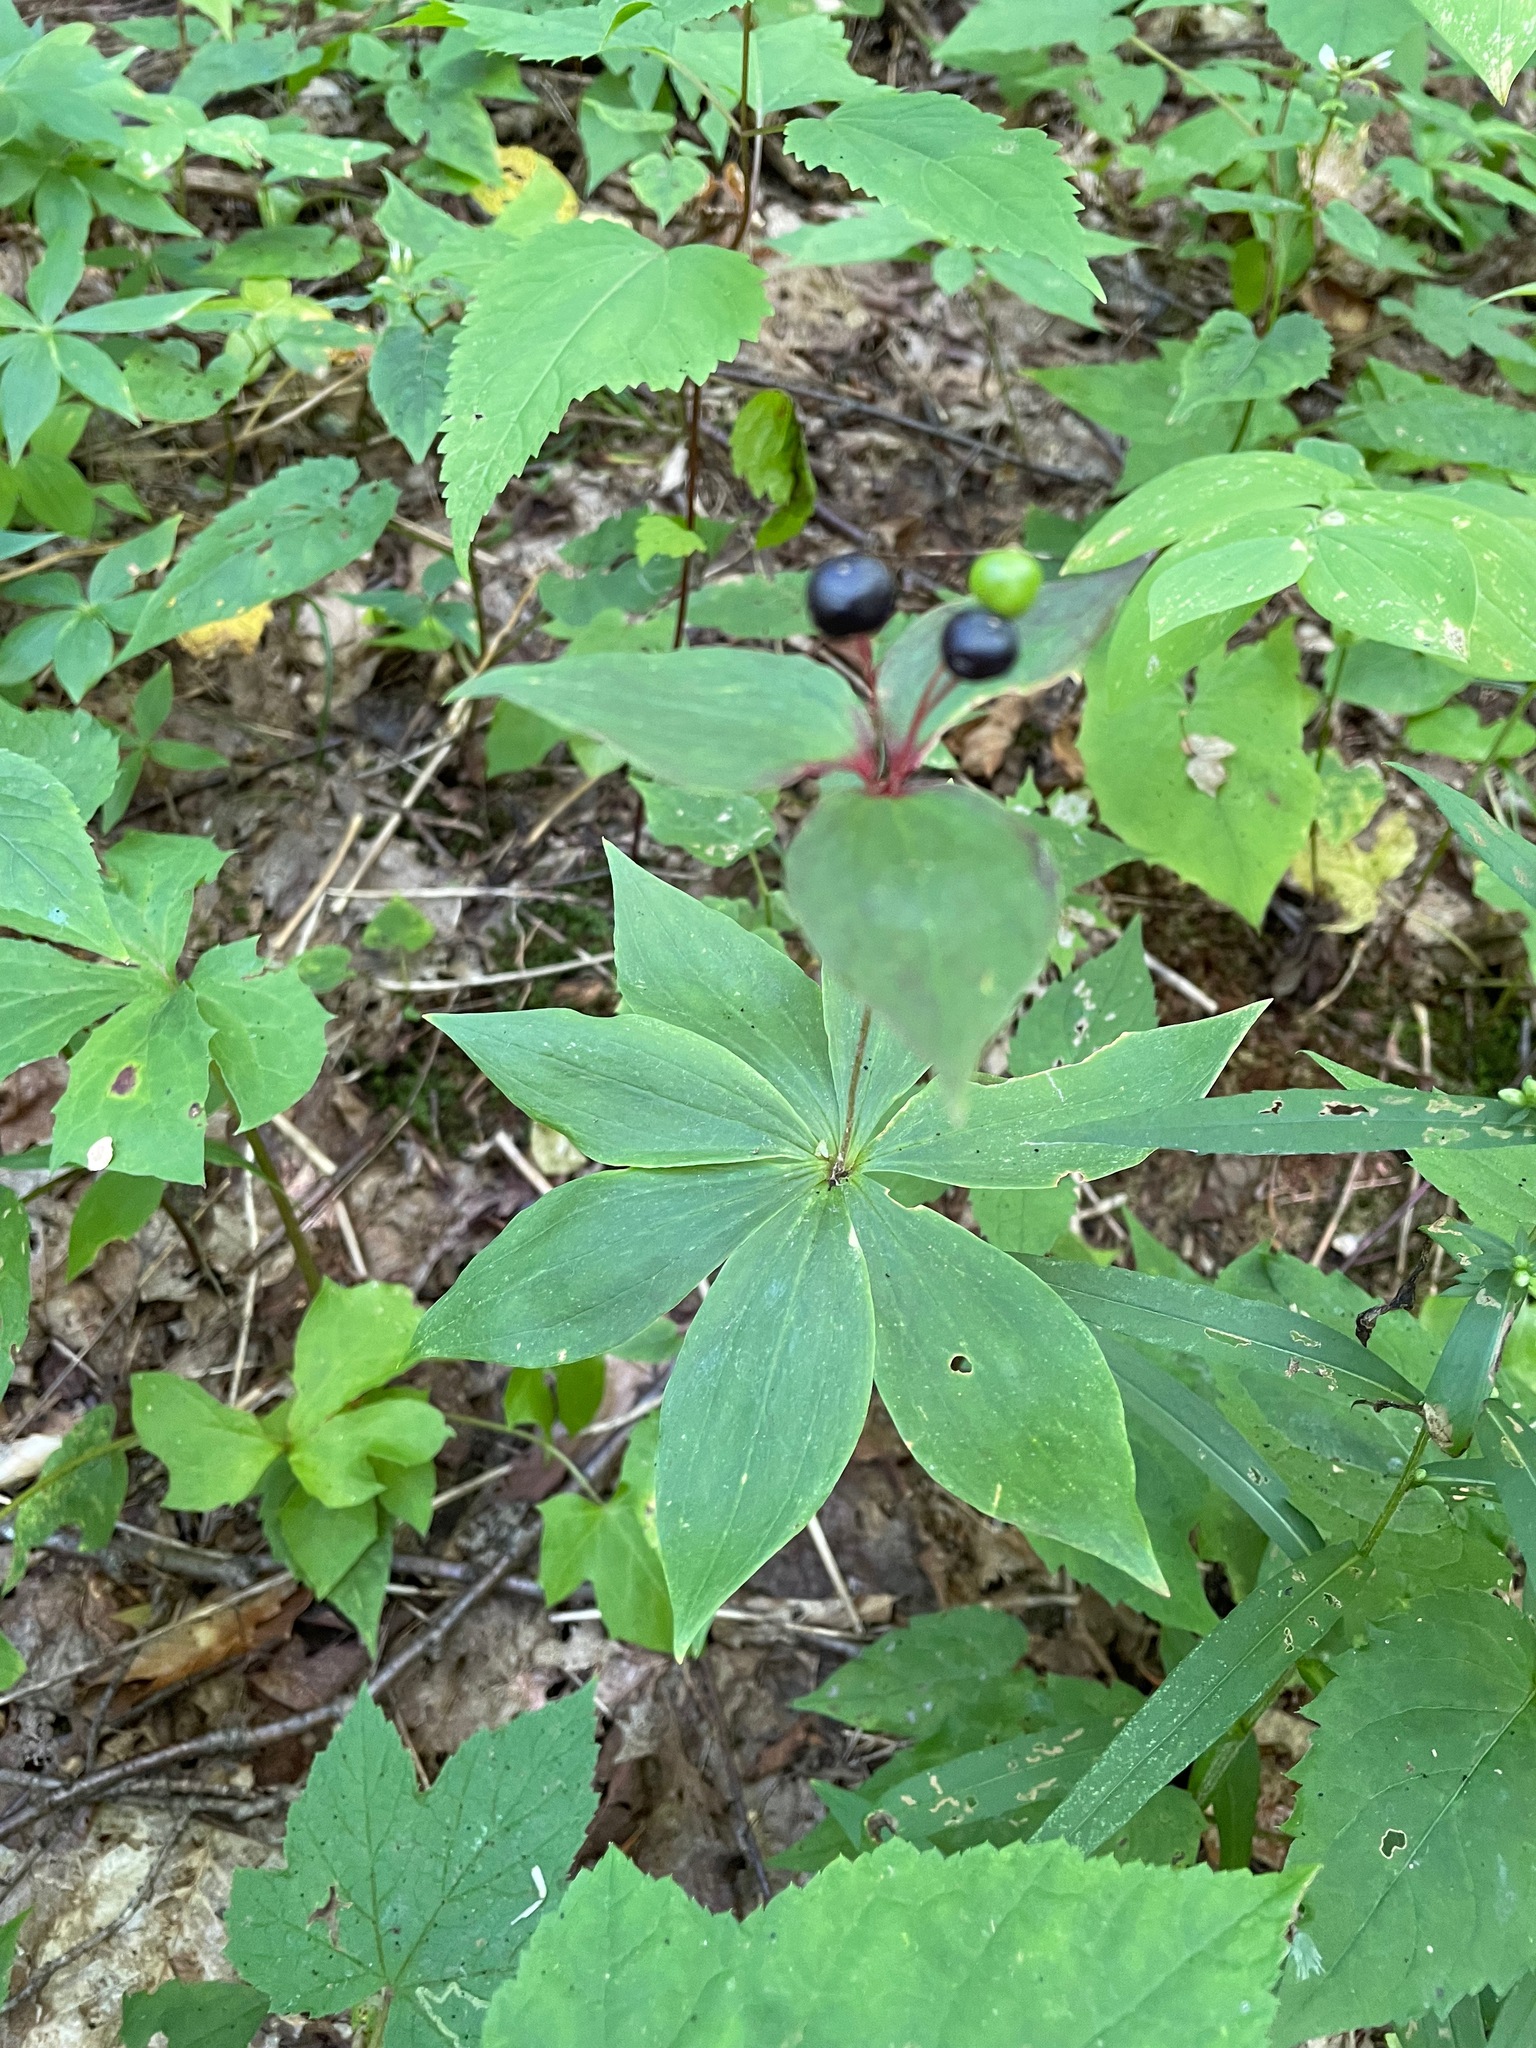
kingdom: Plantae
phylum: Tracheophyta
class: Liliopsida
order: Liliales
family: Liliaceae
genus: Medeola
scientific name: Medeola virginiana
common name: Indian cucumber-root
